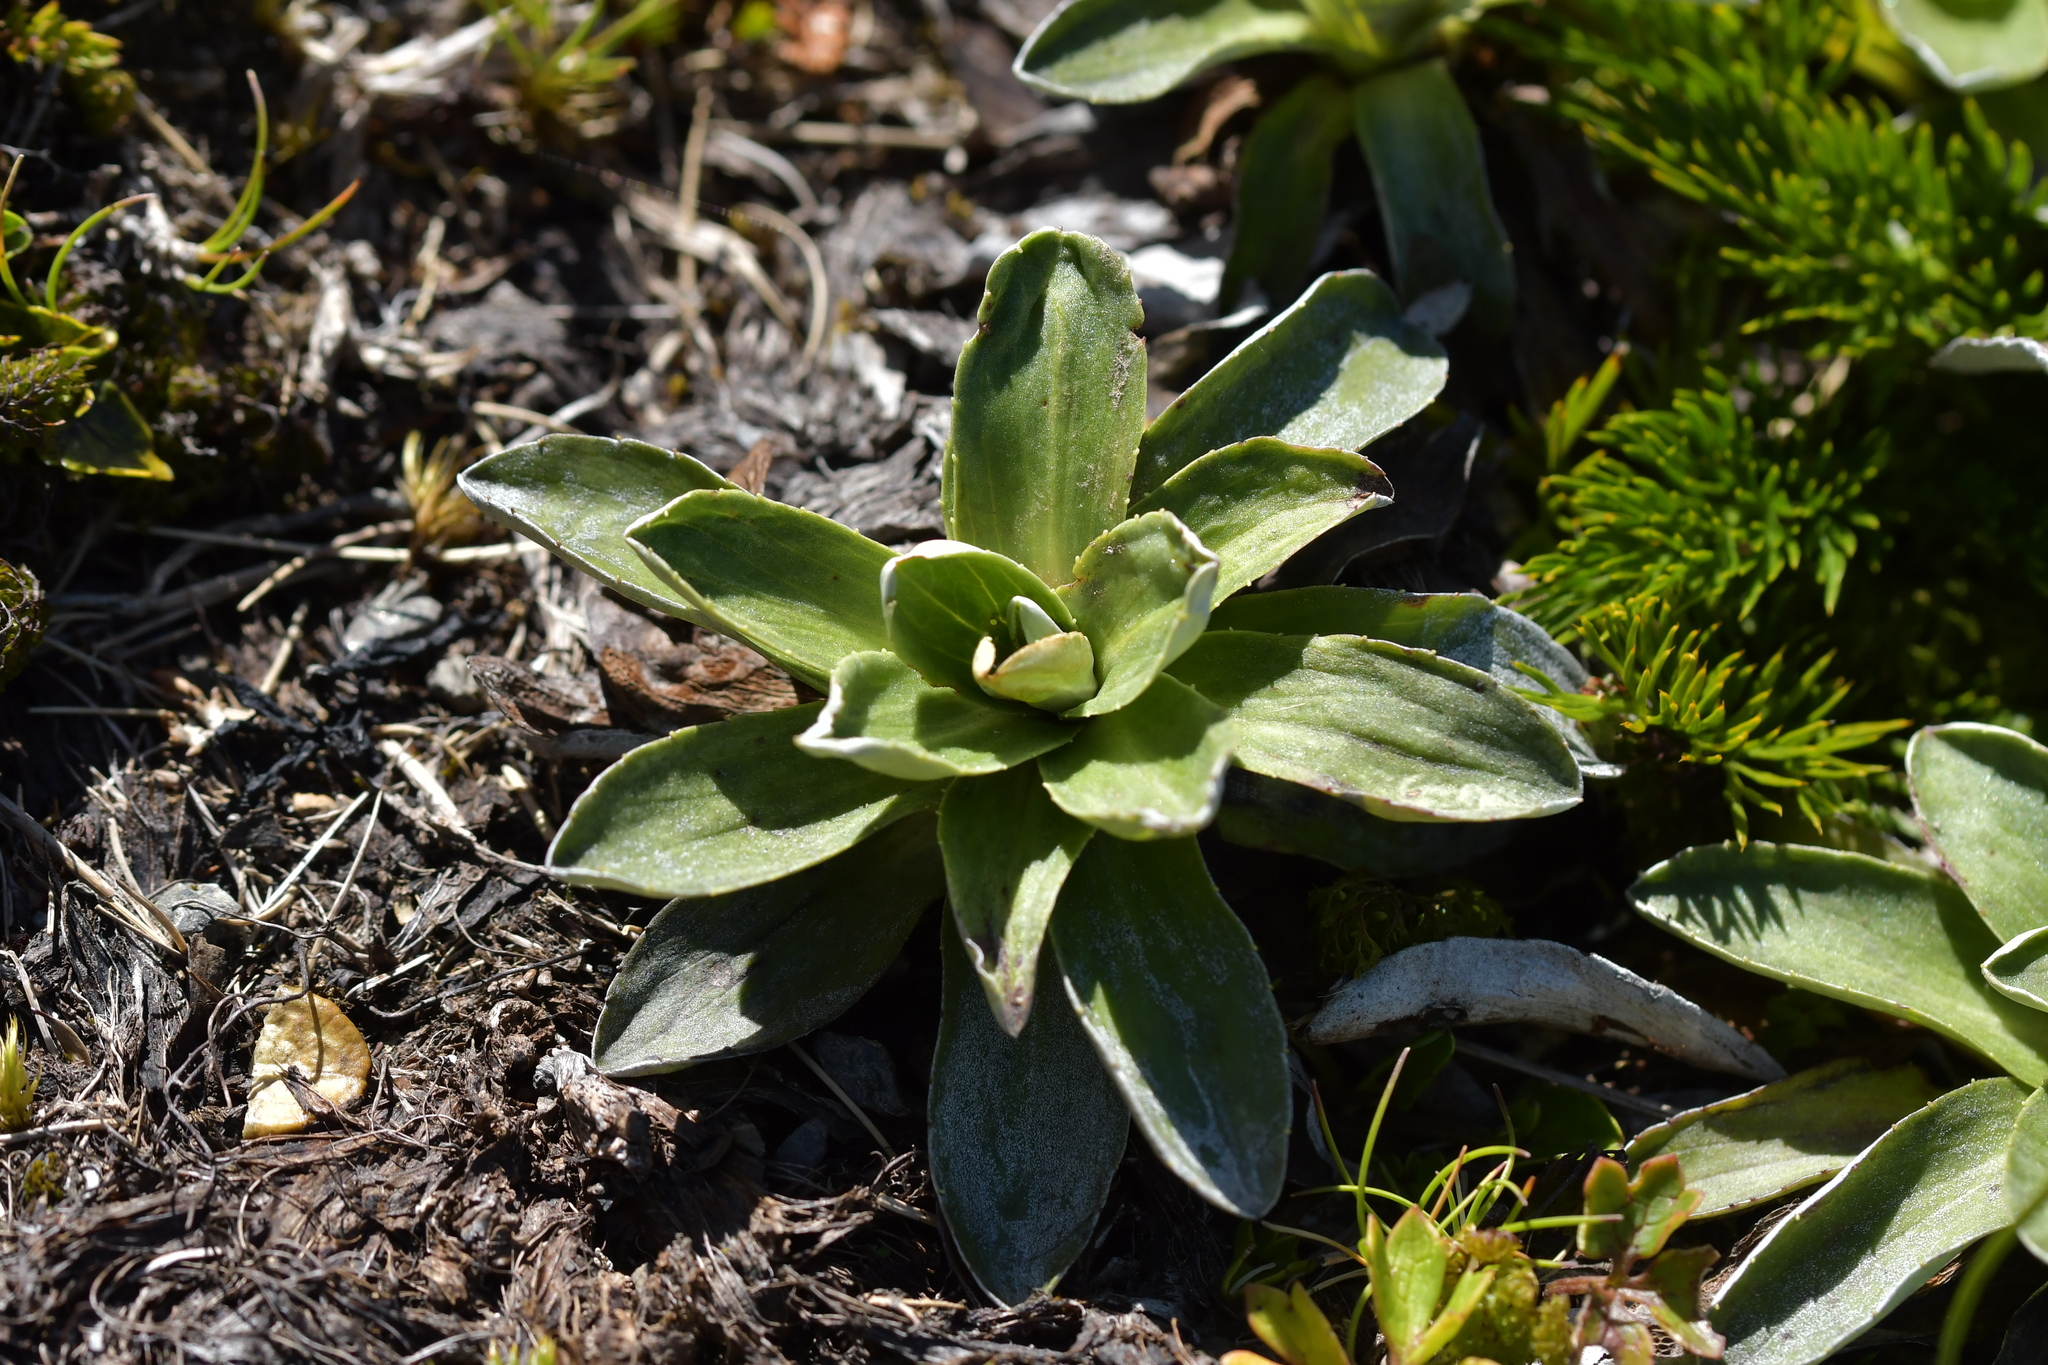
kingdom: Plantae
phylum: Tracheophyta
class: Magnoliopsida
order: Asterales
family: Asteraceae
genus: Celmisia
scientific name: Celmisia hieraciifolia
